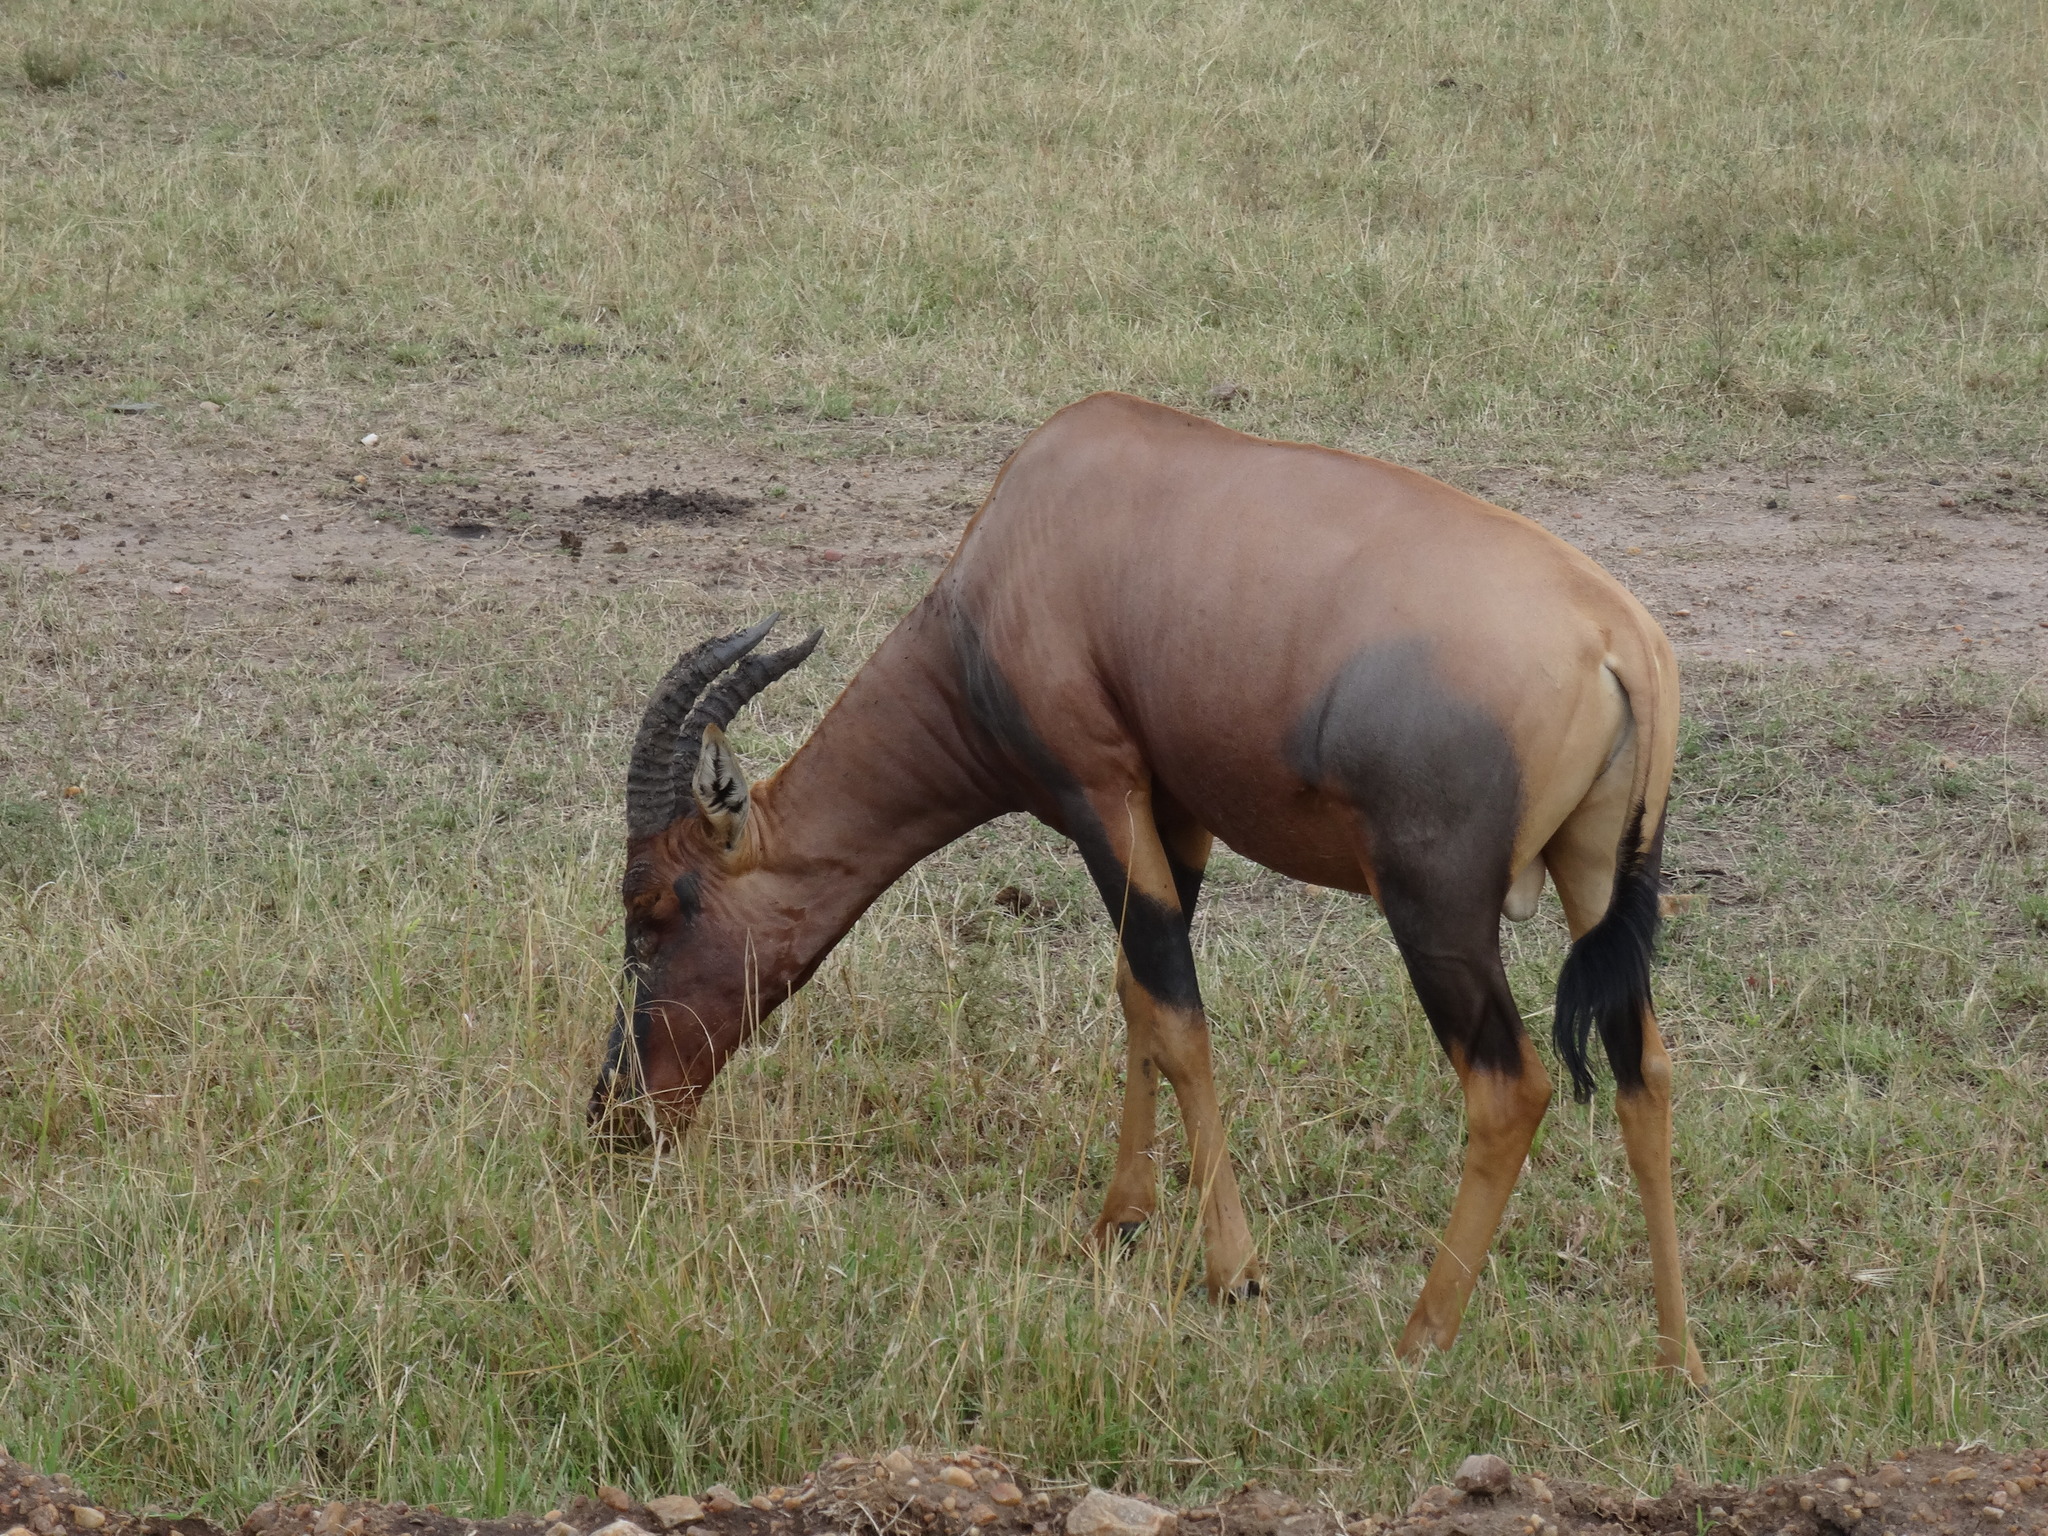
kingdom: Animalia
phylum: Chordata
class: Mammalia
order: Artiodactyla
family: Bovidae
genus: Damaliscus
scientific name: Damaliscus korrigum
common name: Topi
